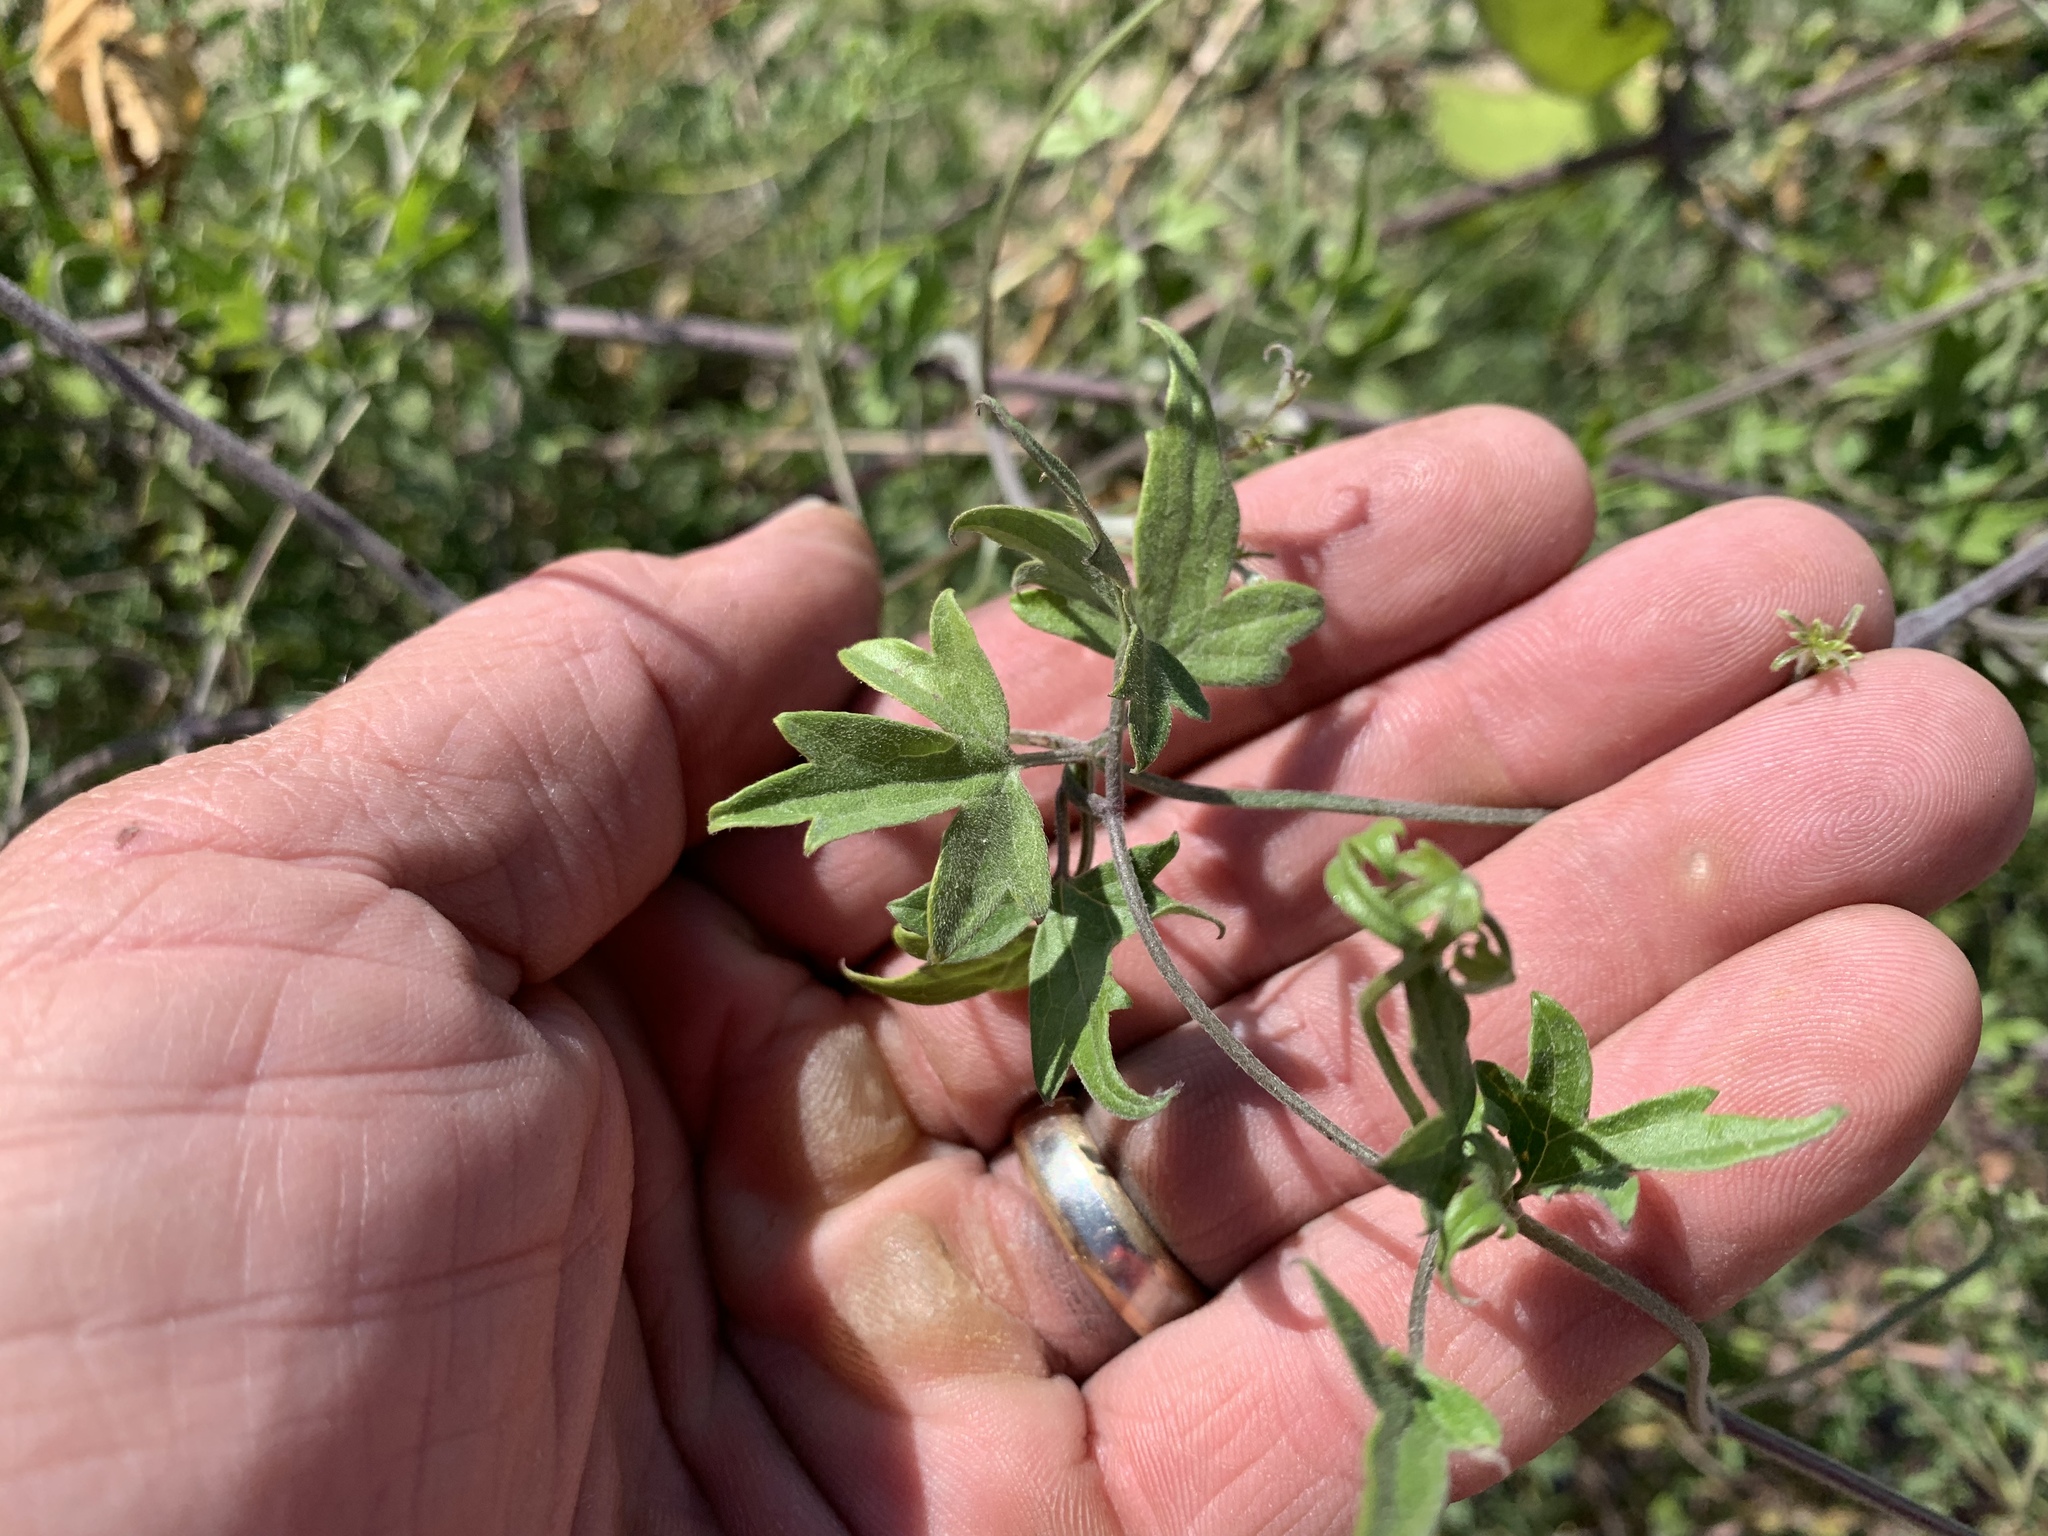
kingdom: Plantae
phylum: Tracheophyta
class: Magnoliopsida
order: Ranunculales
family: Ranunculaceae
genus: Clematis
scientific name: Clematis drummondii
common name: Texas virgin's bower
